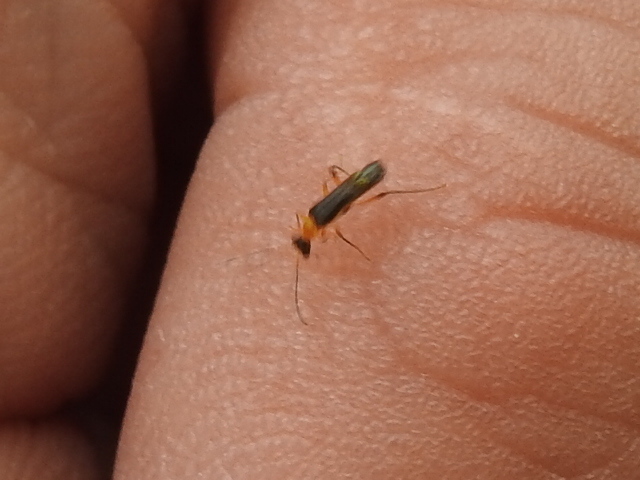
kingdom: Animalia
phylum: Arthropoda
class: Insecta
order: Coleoptera
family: Cantharidae
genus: Malthinus
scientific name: Malthinus occipitalis
